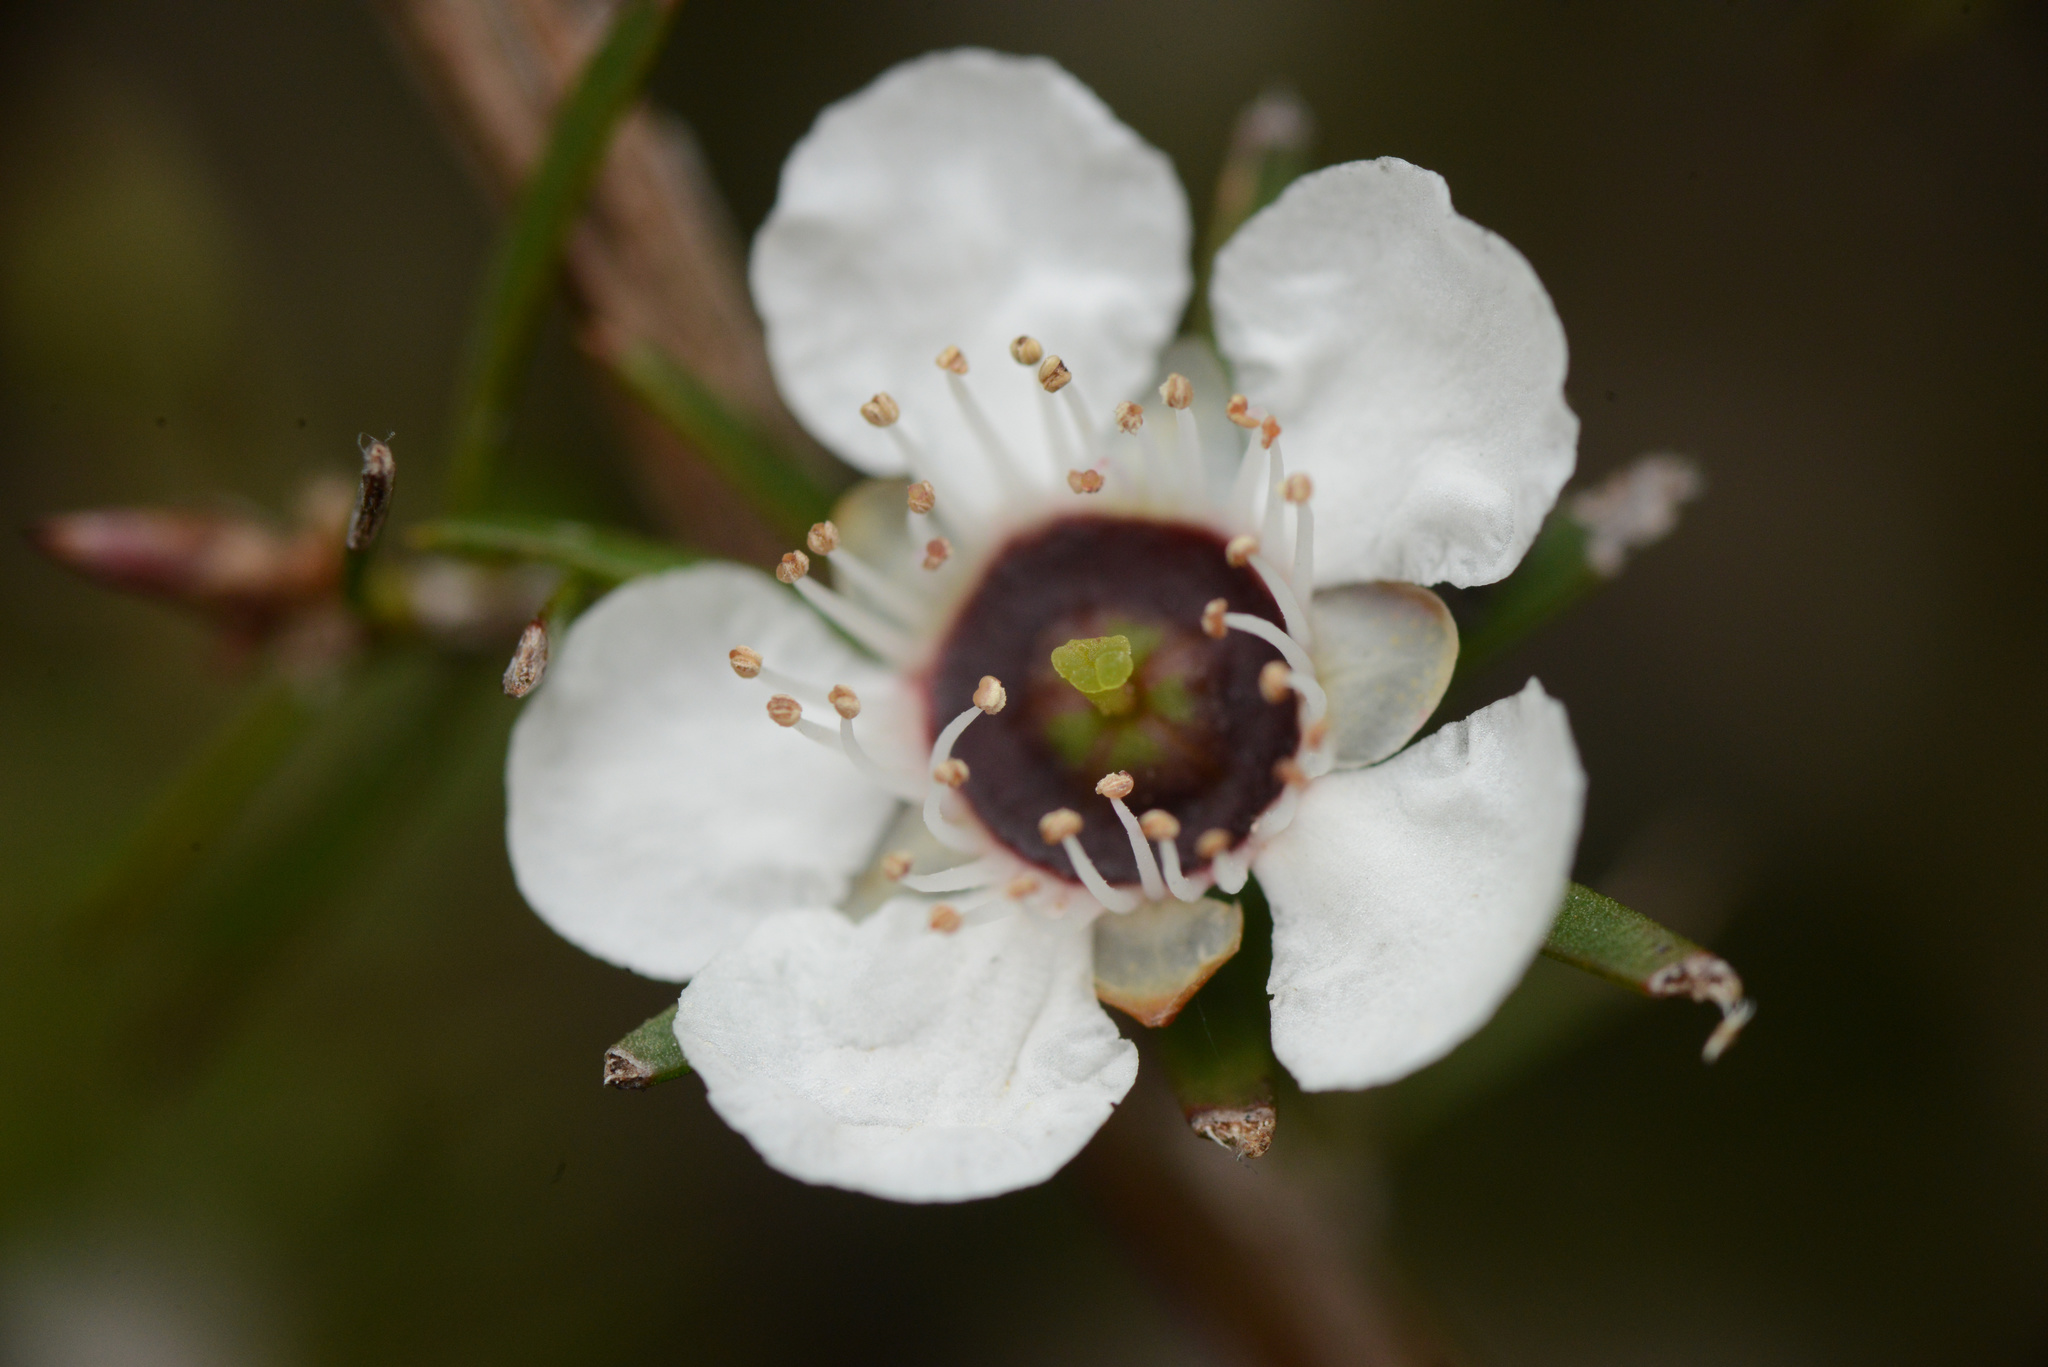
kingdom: Plantae
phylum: Tracheophyta
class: Magnoliopsida
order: Myrtales
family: Myrtaceae
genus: Leptospermum
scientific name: Leptospermum scoparium
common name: Broom tea-tree
